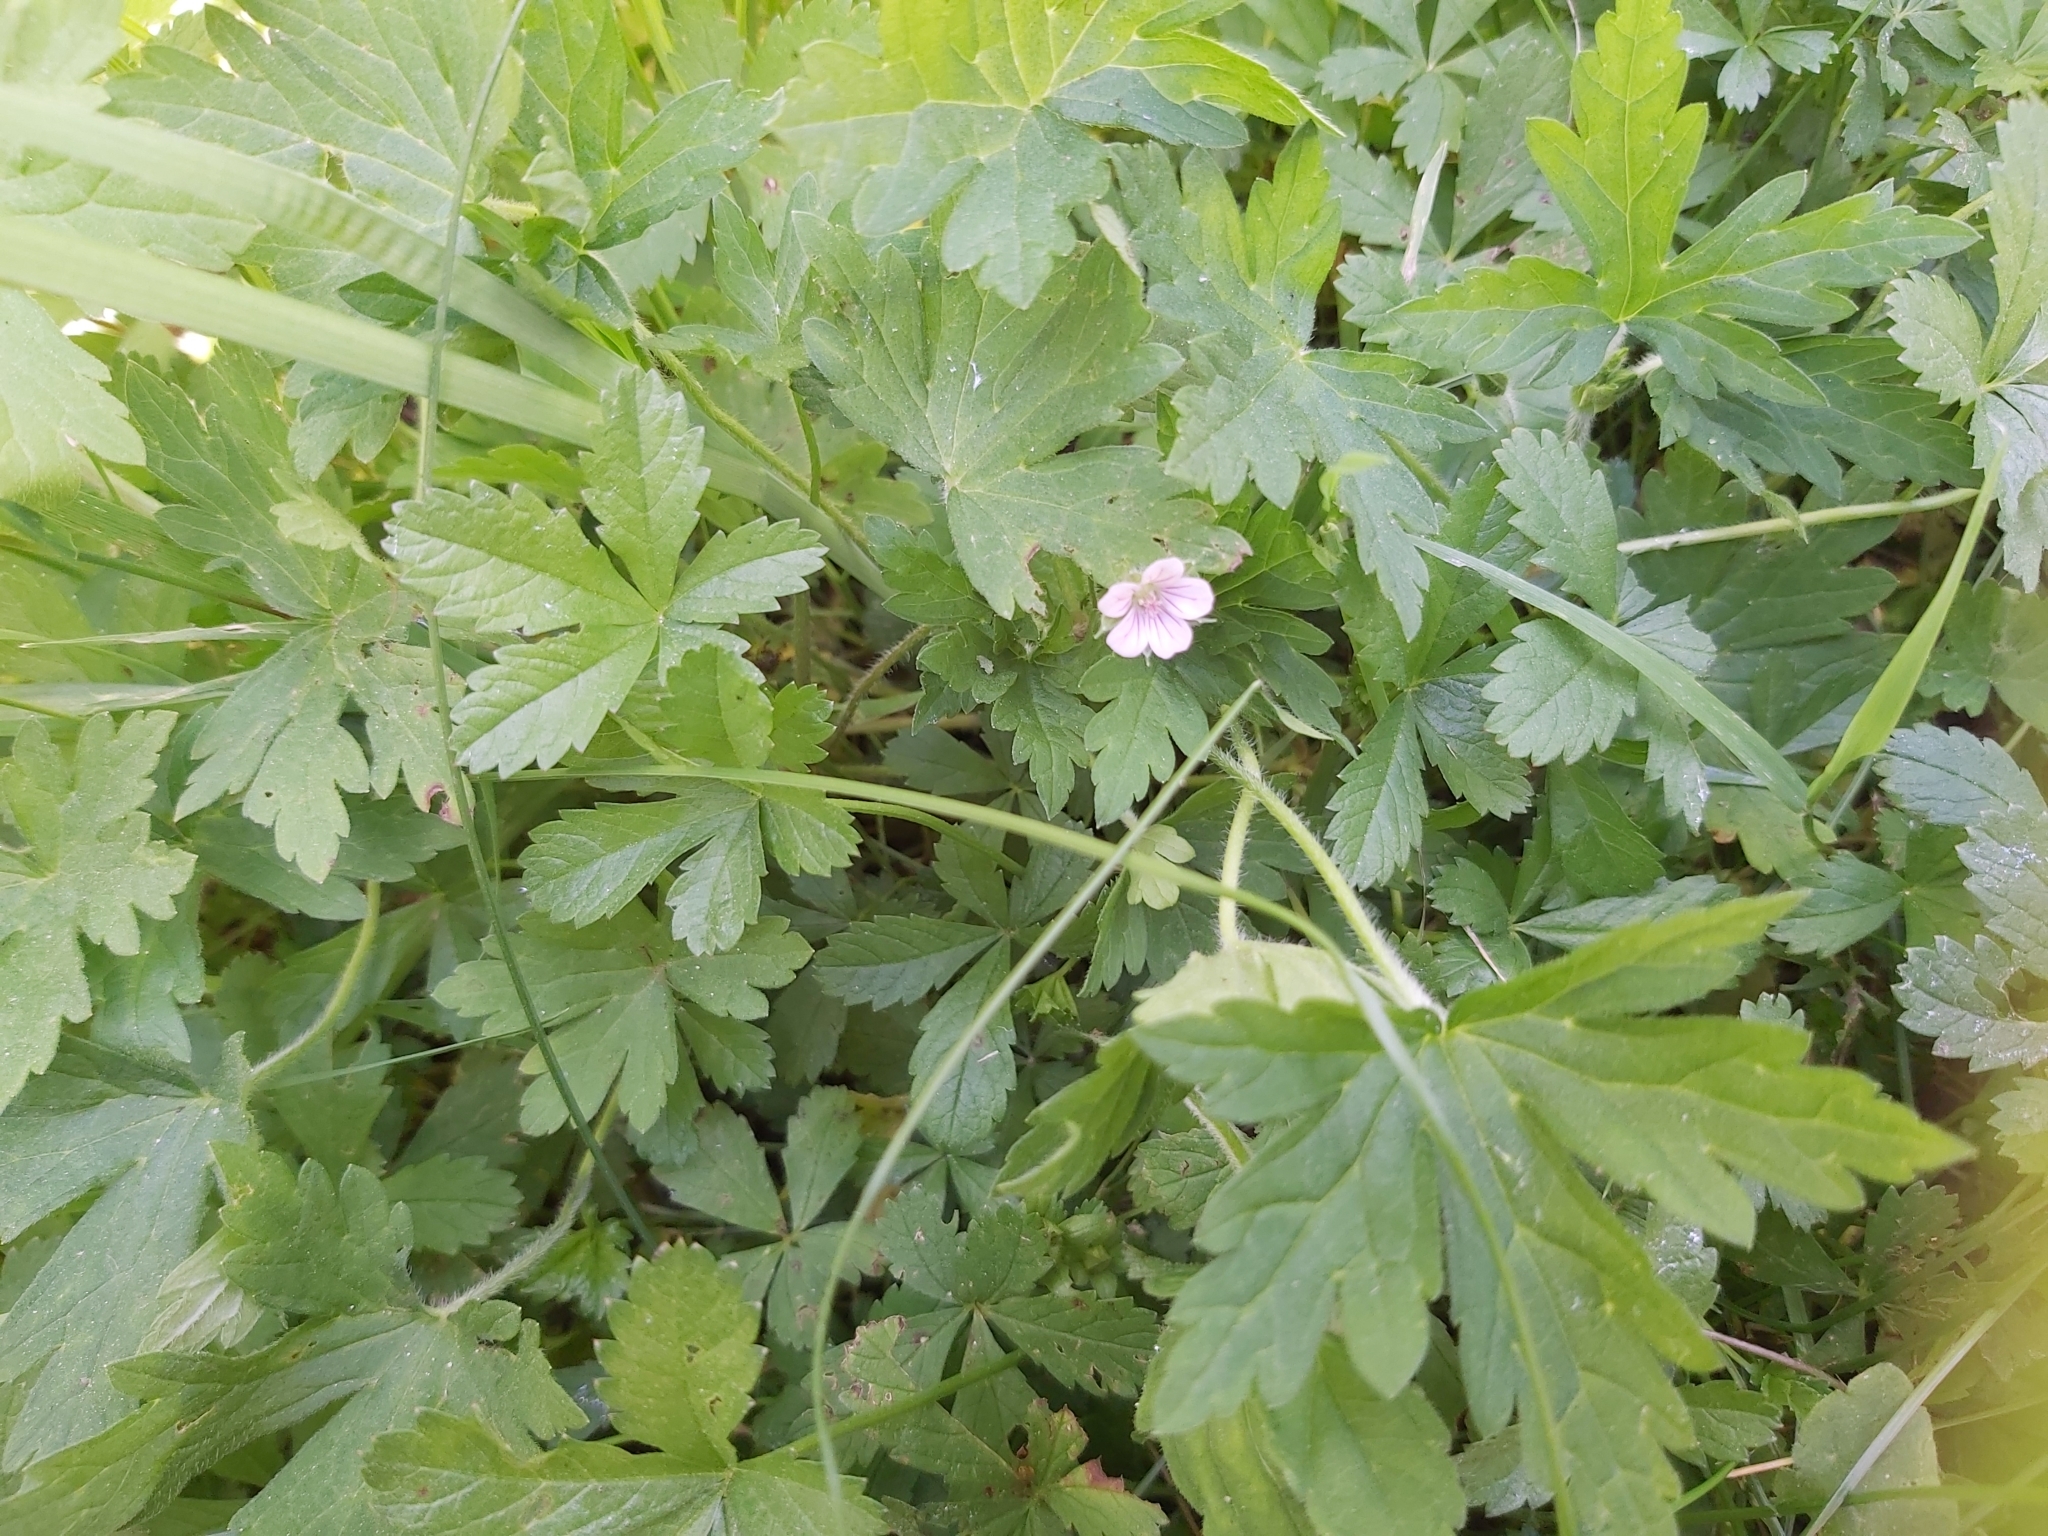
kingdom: Plantae
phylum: Tracheophyta
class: Magnoliopsida
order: Geraniales
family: Geraniaceae
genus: Geranium
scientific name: Geranium sibiricum
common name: Siberian crane's-bill
